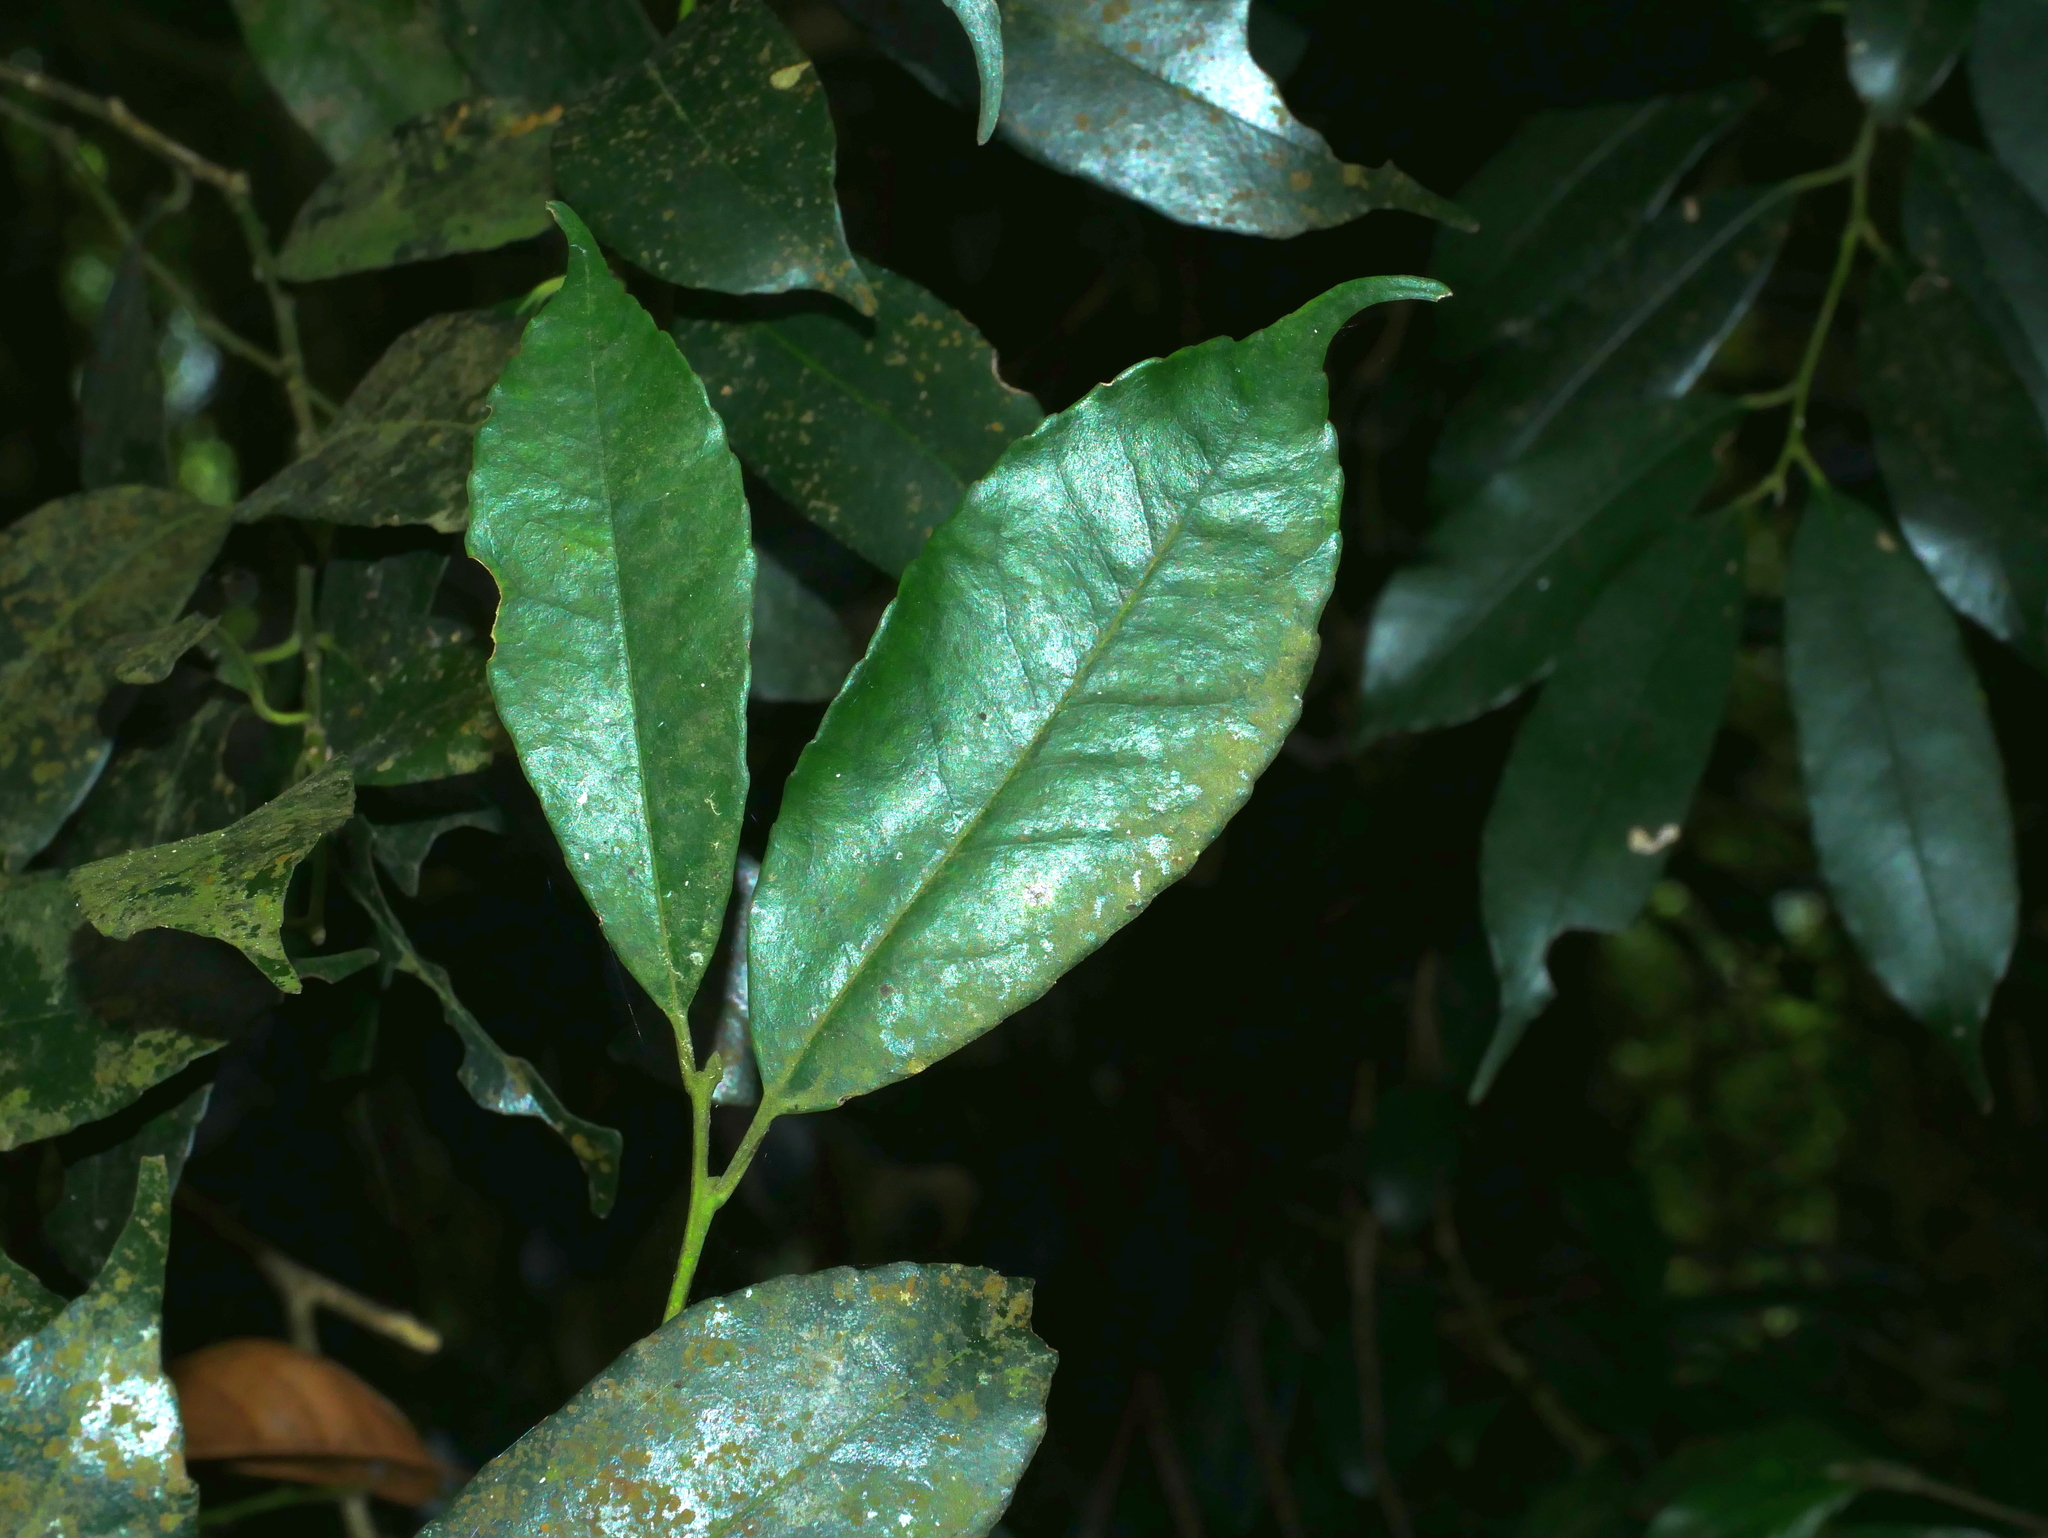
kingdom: Plantae
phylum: Tracheophyta
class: Magnoliopsida
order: Aquifoliales
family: Aquifoliaceae
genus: Ilex
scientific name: Ilex arisanensis
